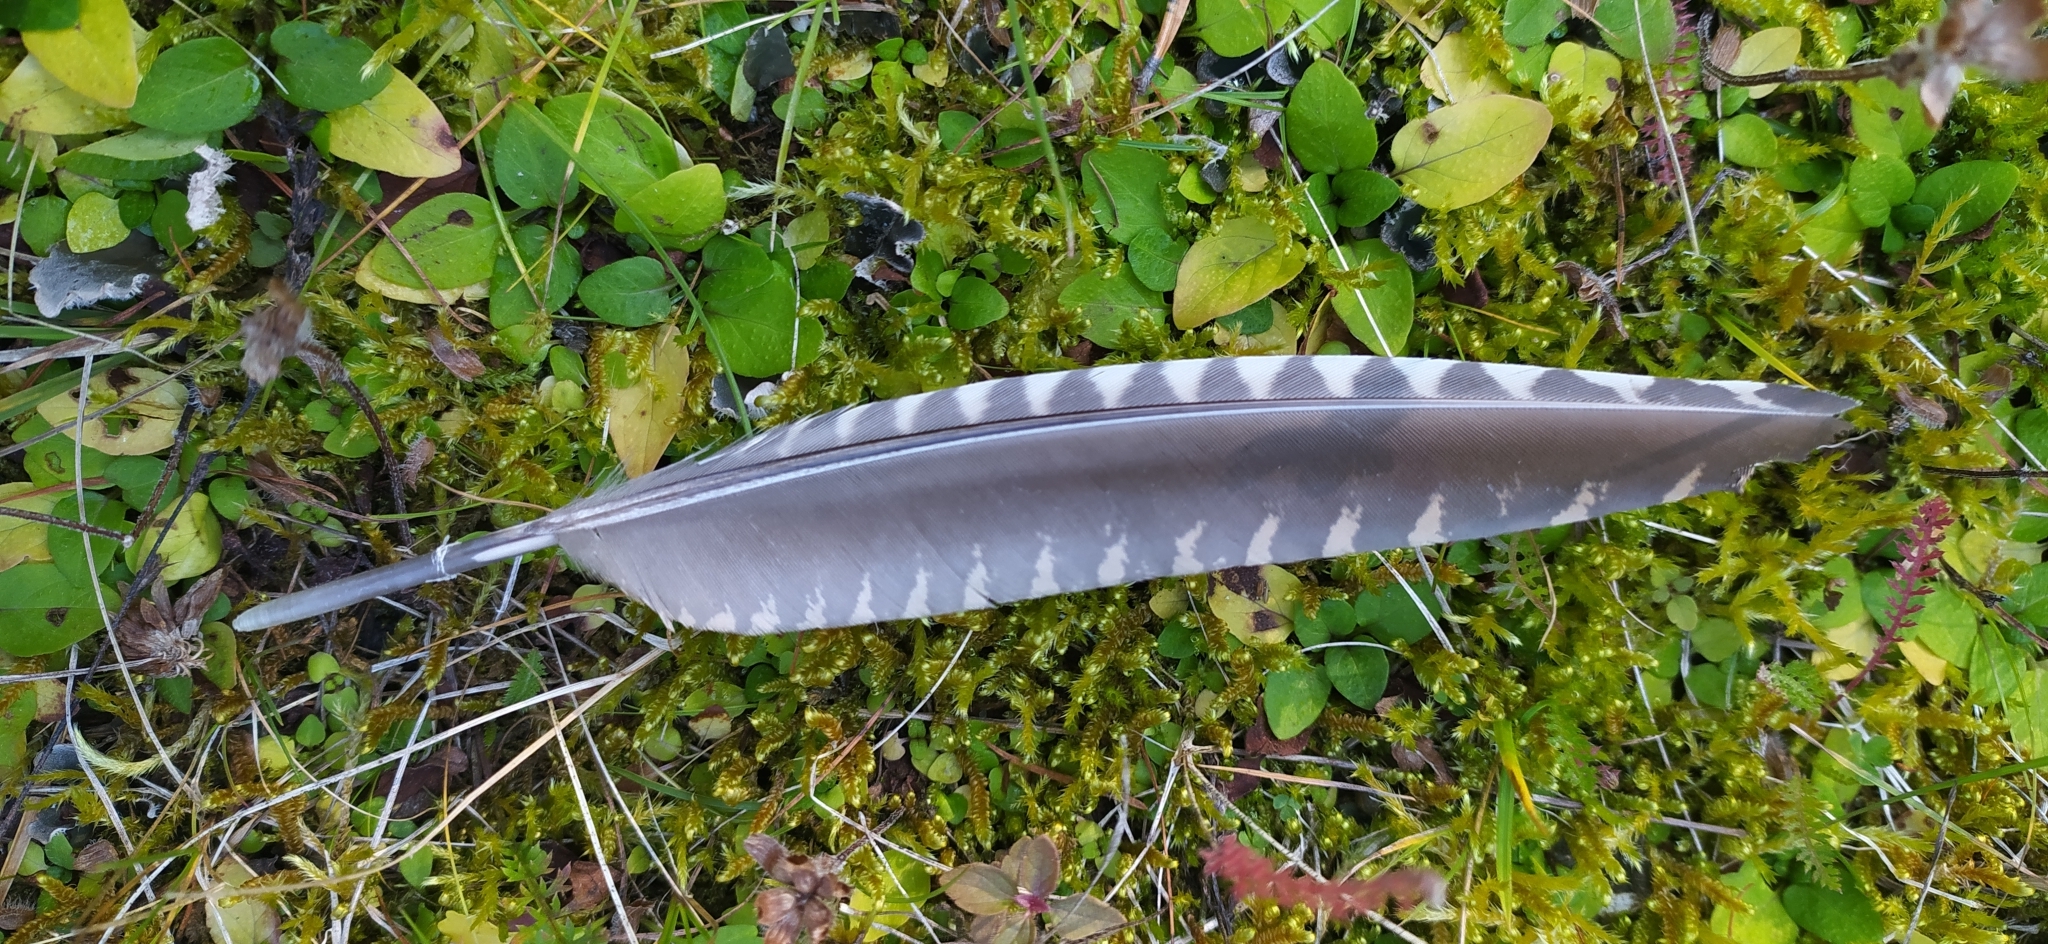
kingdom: Animalia
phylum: Chordata
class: Aves
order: Charadriiformes
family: Scolopacidae
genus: Scolopax
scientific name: Scolopax rusticola
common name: Eurasian woodcock
